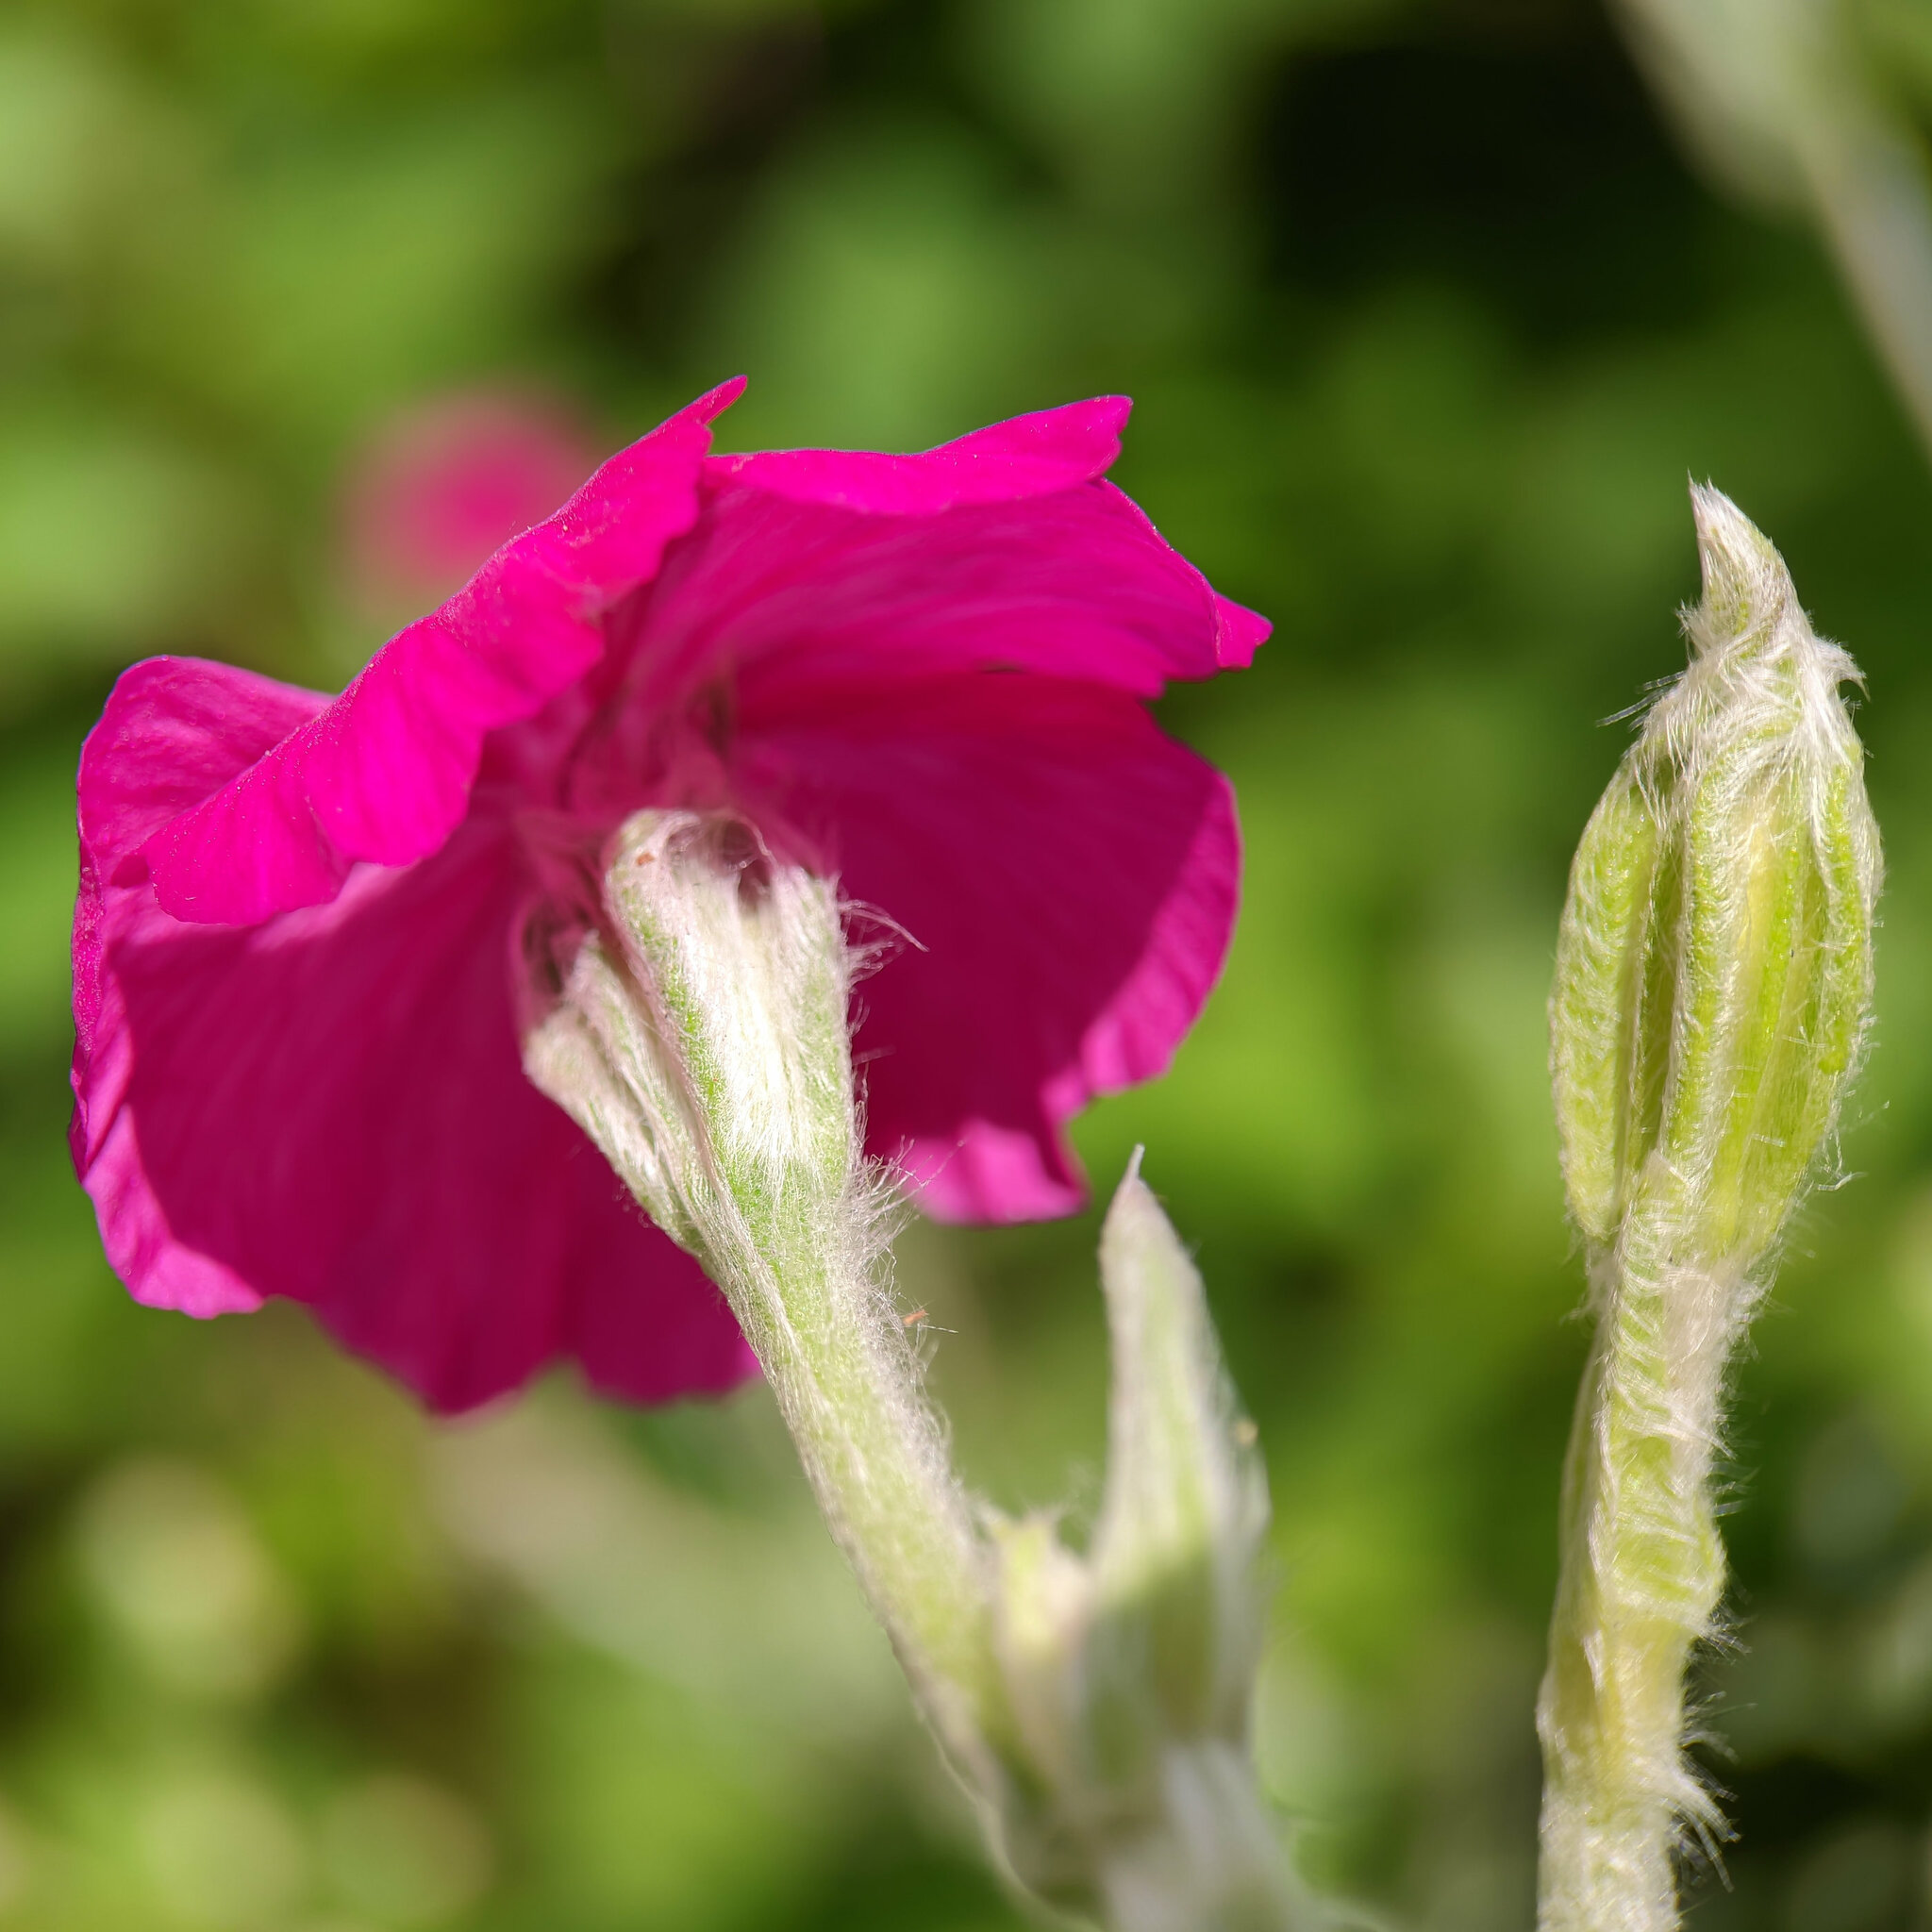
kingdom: Plantae
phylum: Tracheophyta
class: Magnoliopsida
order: Caryophyllales
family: Caryophyllaceae
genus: Silene
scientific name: Silene coronaria
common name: Rose campion
